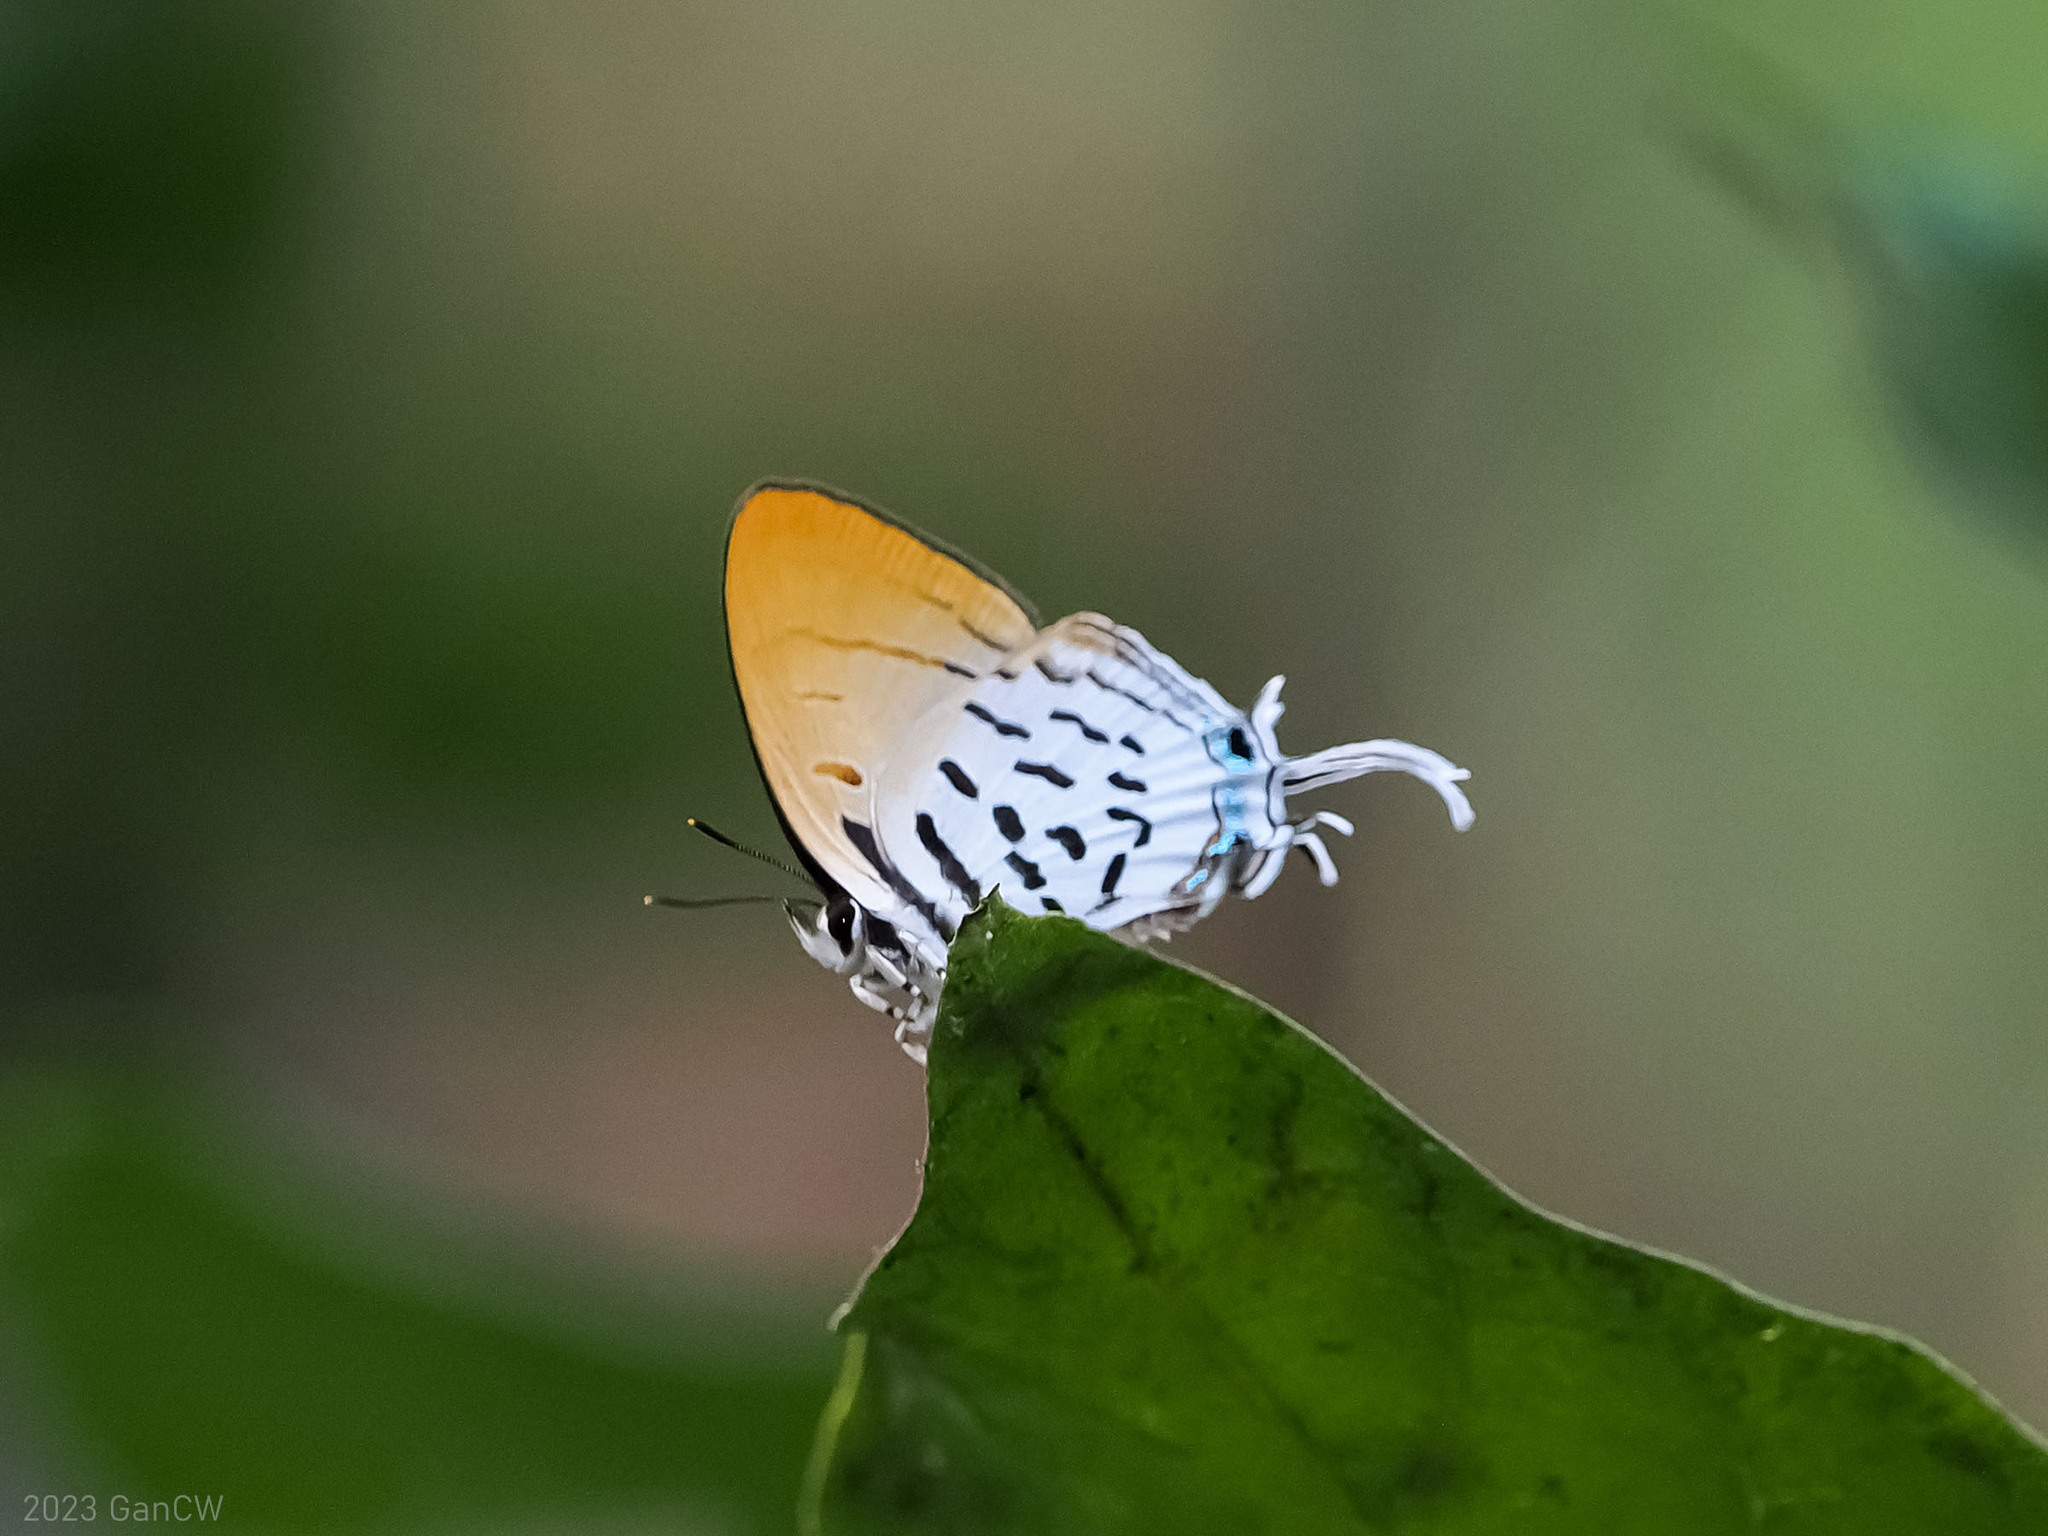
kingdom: Animalia
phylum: Arthropoda
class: Insecta
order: Lepidoptera
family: Lycaenidae
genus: Drupadia
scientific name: Drupadia ravindra
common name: Common posy
